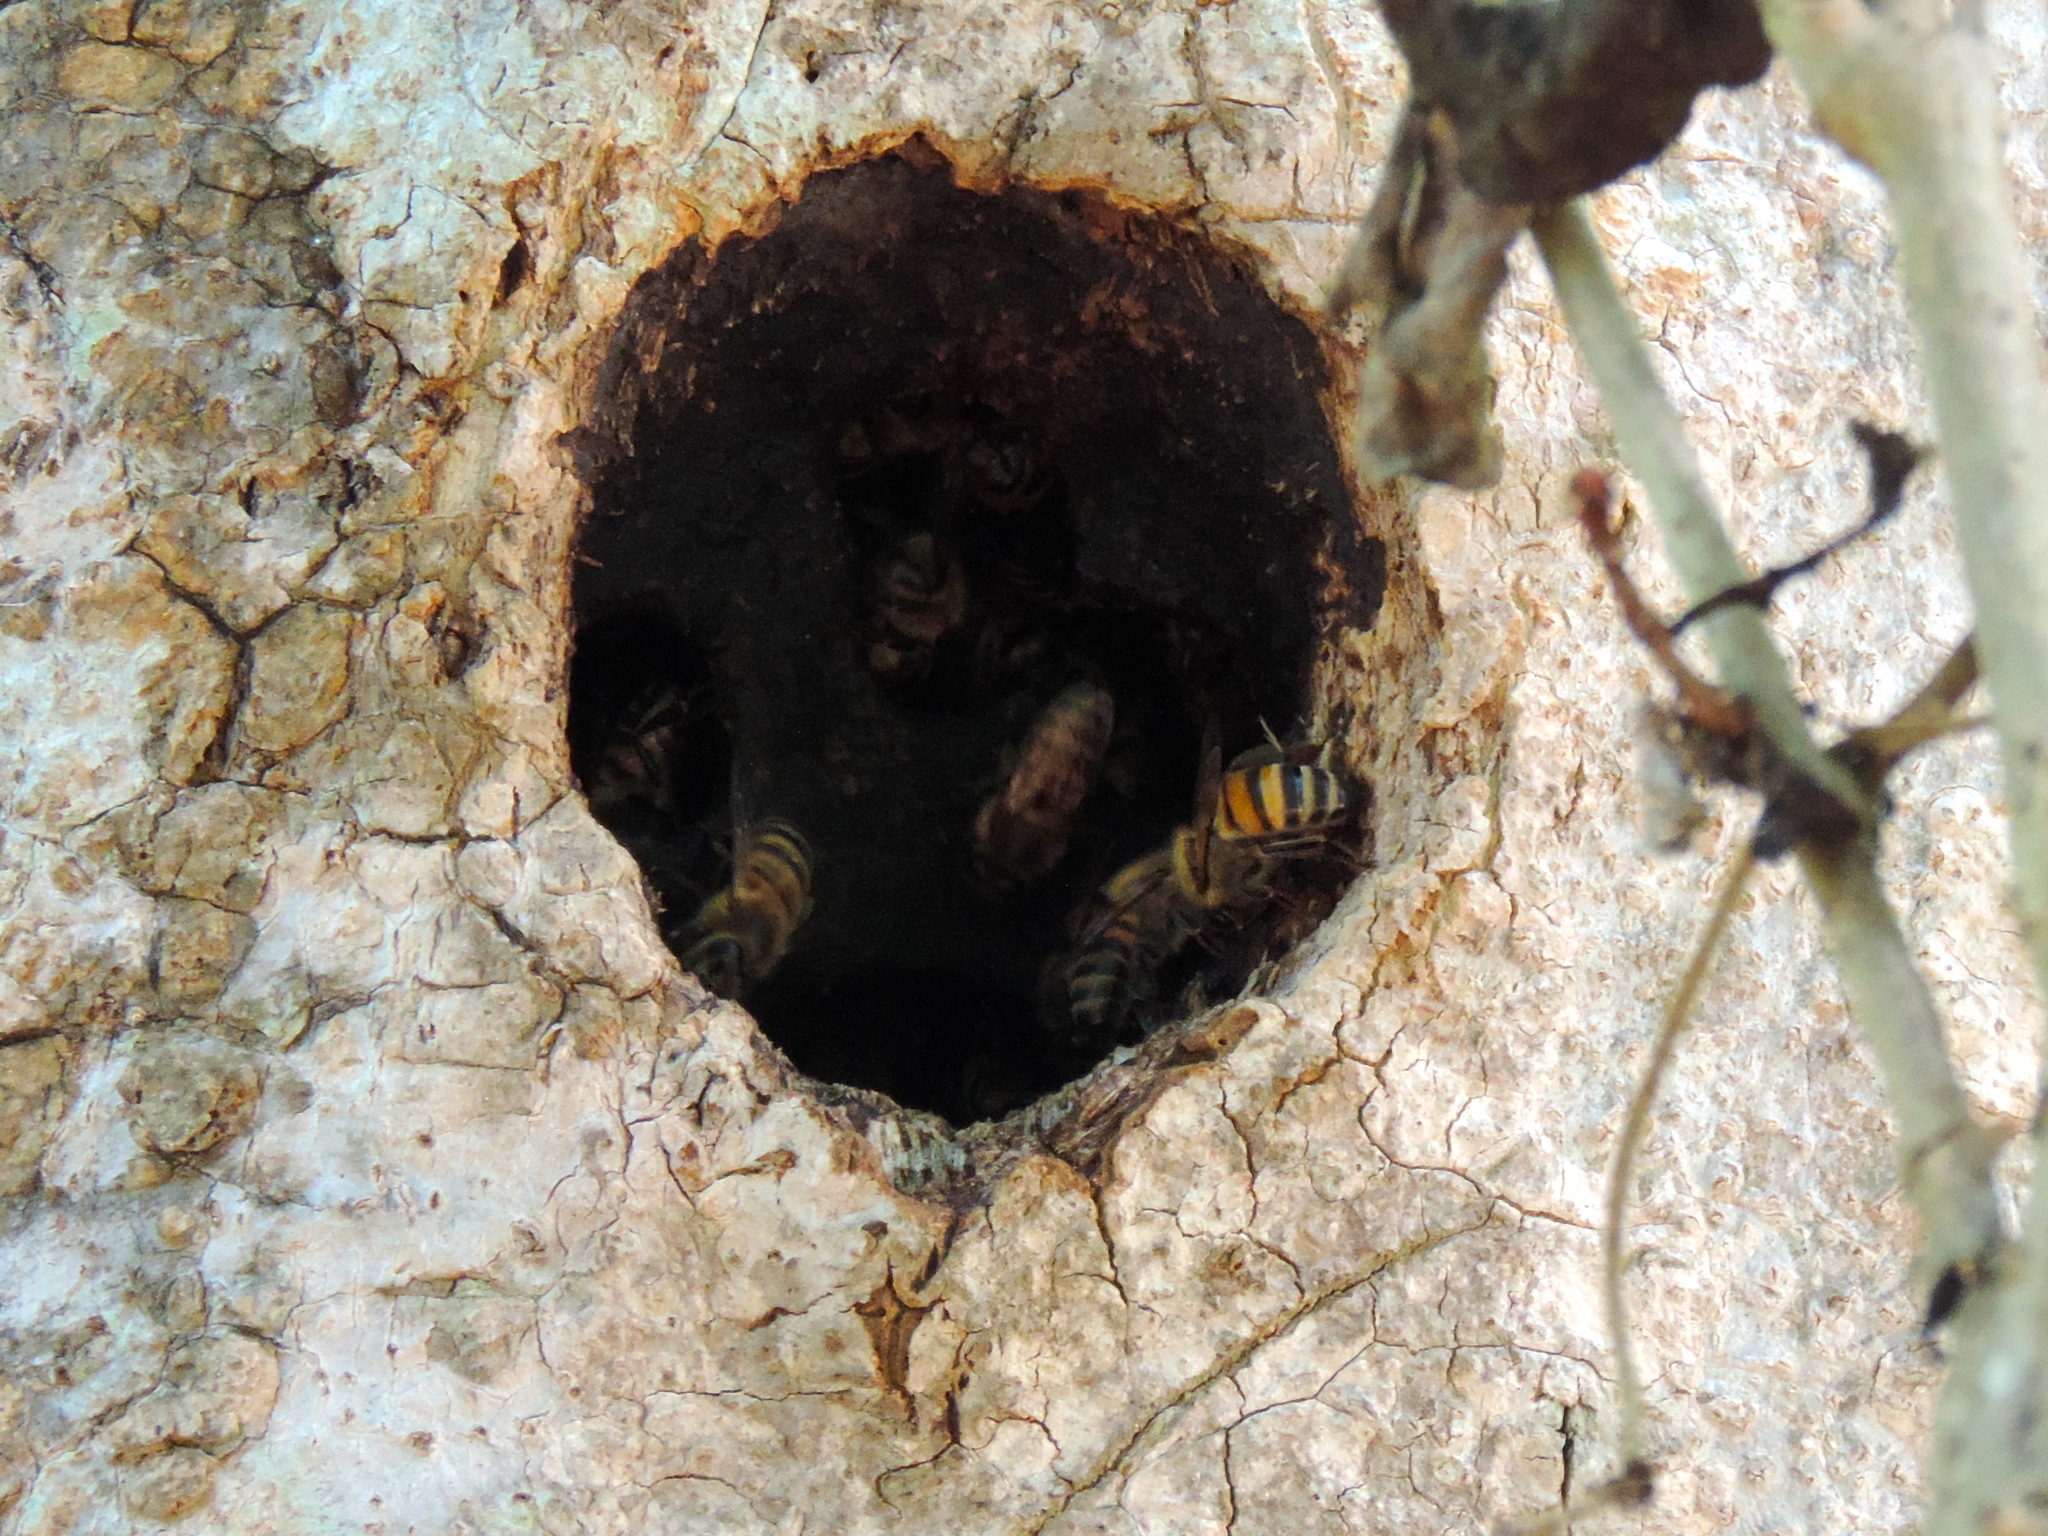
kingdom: Animalia
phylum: Arthropoda
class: Insecta
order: Hymenoptera
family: Apidae
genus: Apis
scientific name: Apis mellifera
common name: Honey bee
